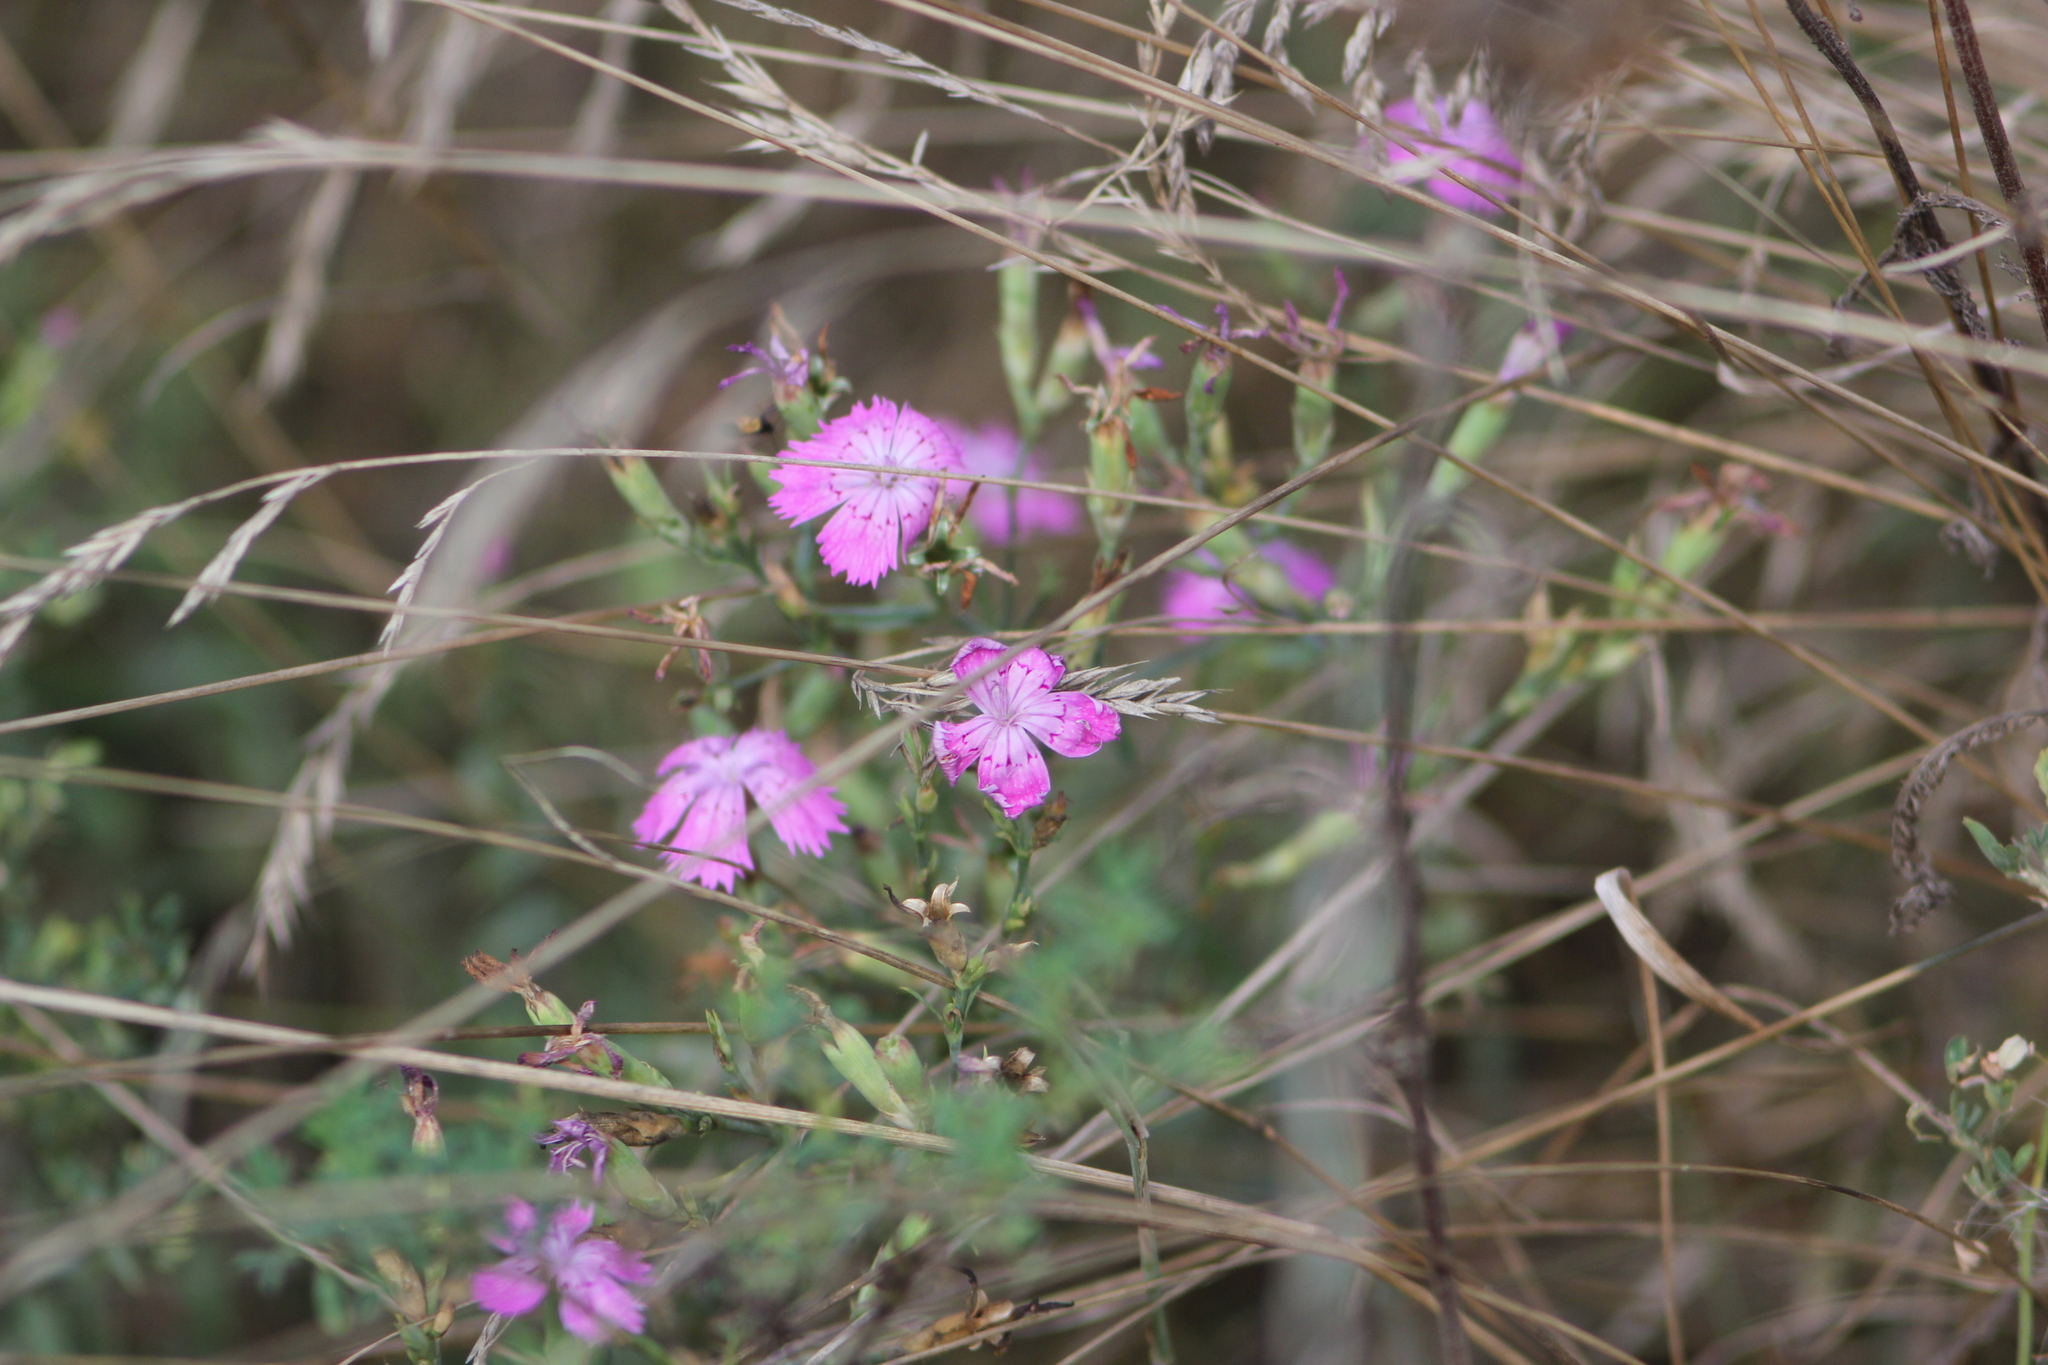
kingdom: Plantae
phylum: Tracheophyta
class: Magnoliopsida
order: Caryophyllales
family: Caryophyllaceae
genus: Dianthus
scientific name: Dianthus chinensis
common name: Rainbow pink
